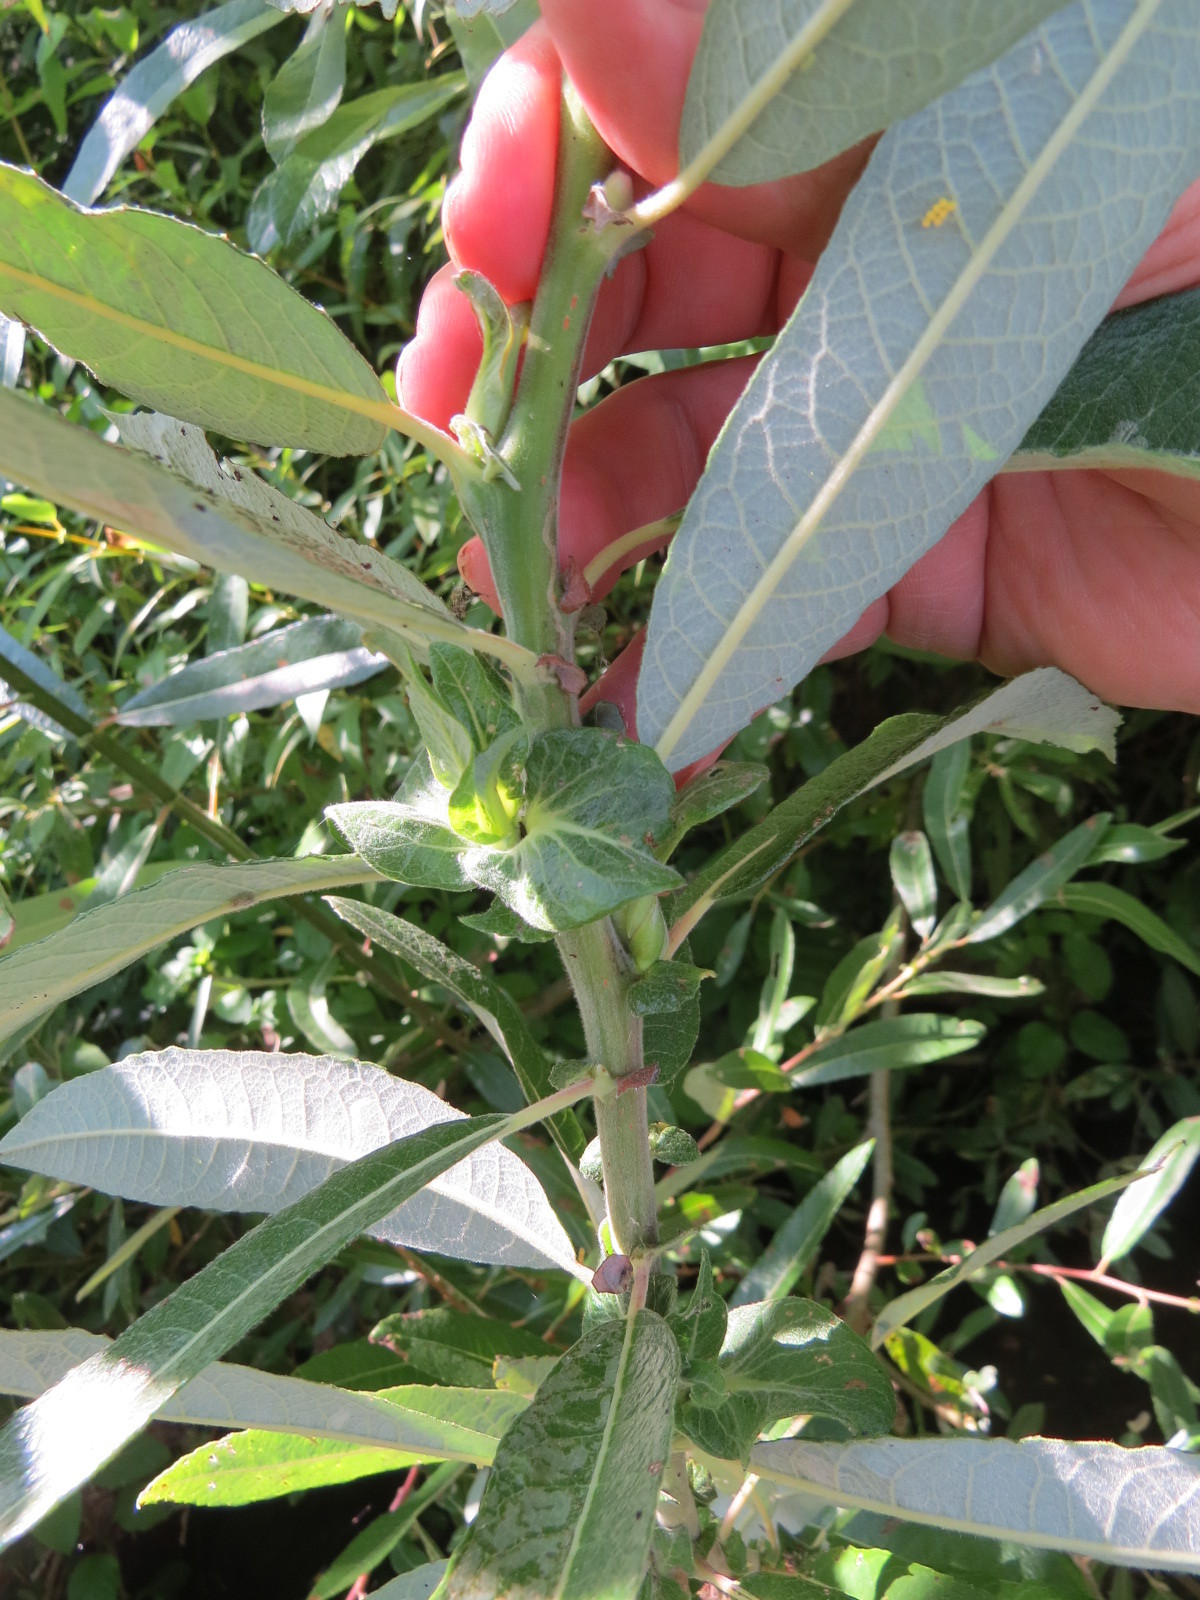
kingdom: Animalia
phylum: Arthropoda
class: Insecta
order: Diptera
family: Cecidomyiidae
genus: Rabdophaga
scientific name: Rabdophaga salicisbrassicoides
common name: Willow cabbagegall midge
